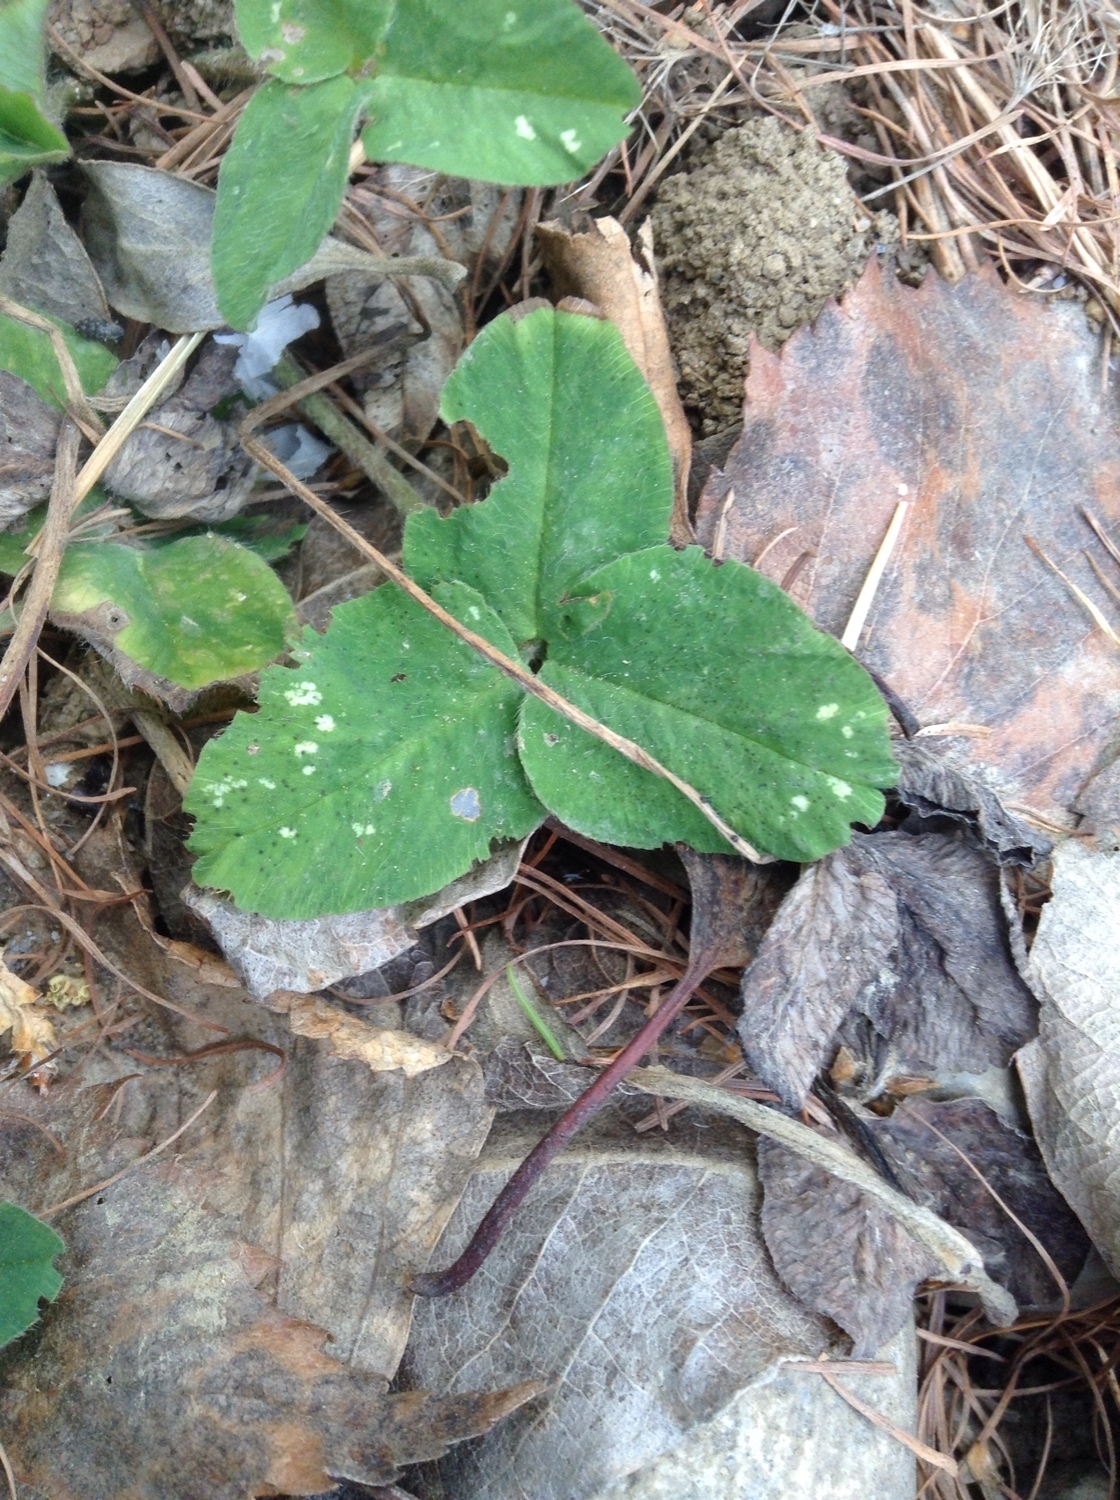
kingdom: Plantae
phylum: Tracheophyta
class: Magnoliopsida
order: Fabales
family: Fabaceae
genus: Trifolium
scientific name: Trifolium pratense
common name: Red clover
